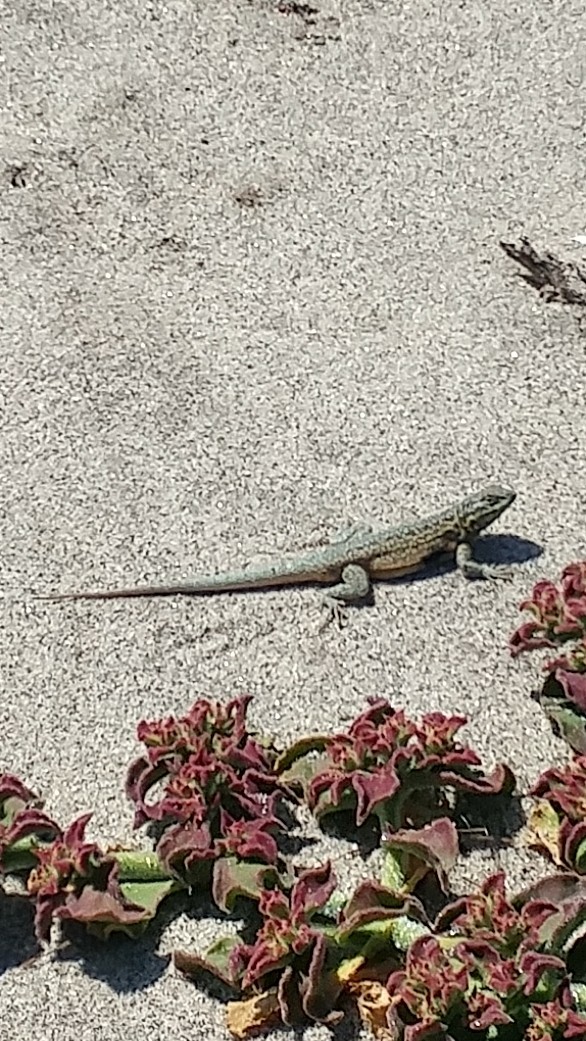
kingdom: Animalia
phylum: Chordata
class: Squamata
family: Phrynosomatidae
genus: Uta
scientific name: Uta stansburiana
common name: Side-blotched lizard
